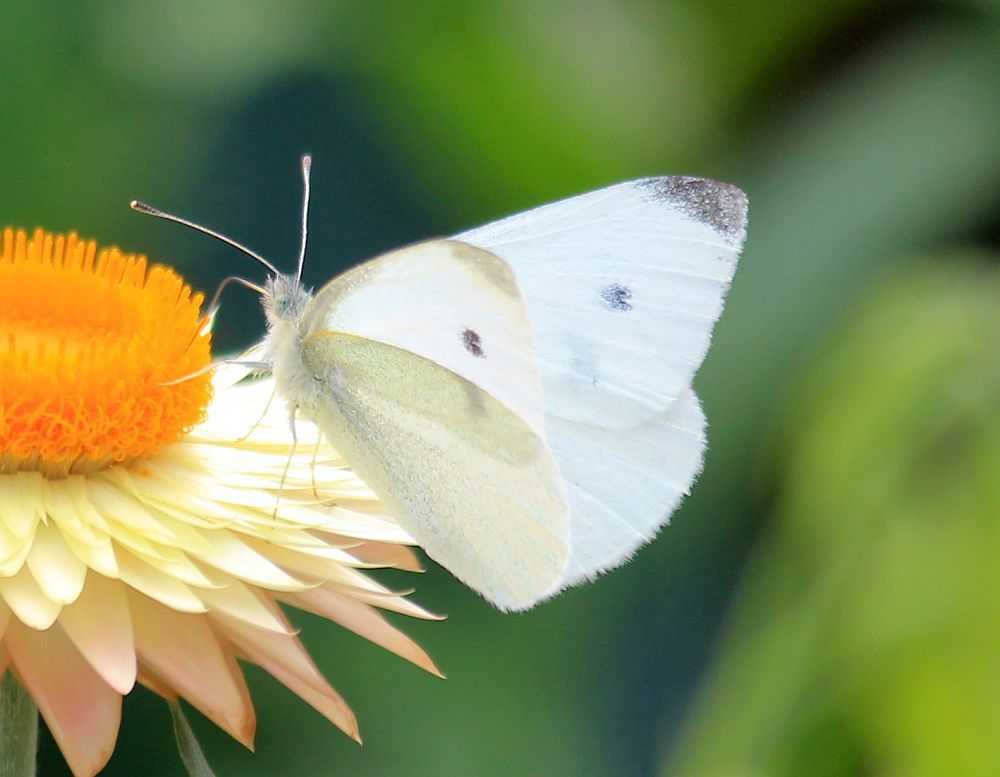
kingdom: Animalia
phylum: Arthropoda
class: Insecta
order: Lepidoptera
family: Pieridae
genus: Pieris
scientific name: Pieris rapae
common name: Small white
